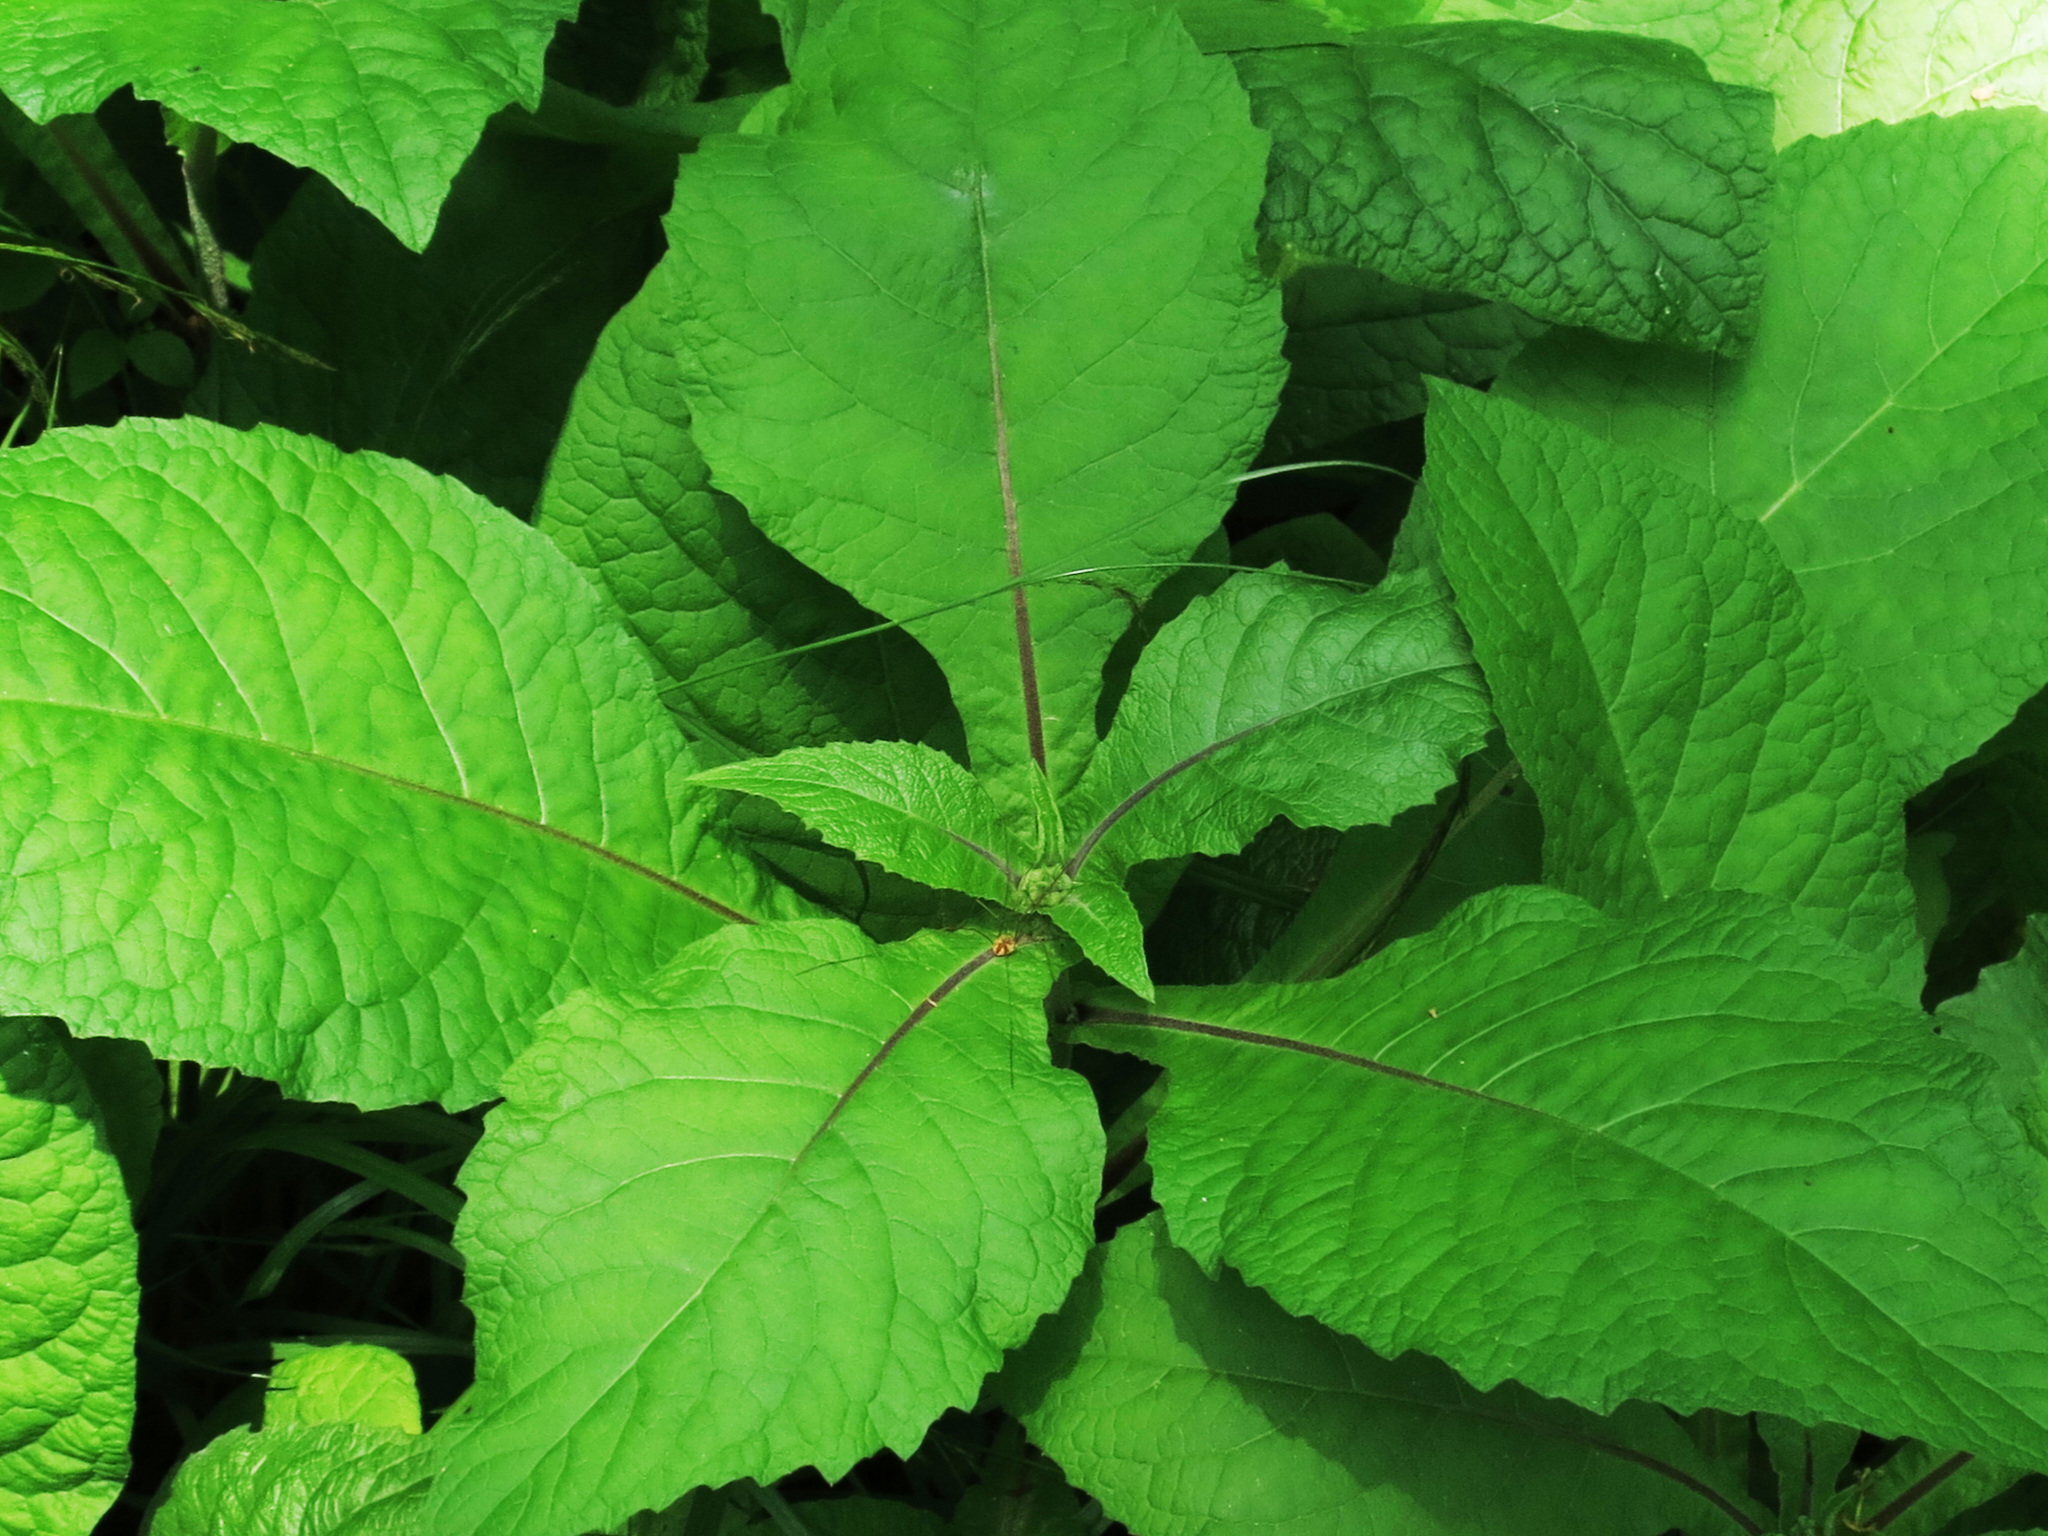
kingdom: Plantae
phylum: Tracheophyta
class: Magnoliopsida
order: Asterales
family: Asteraceae
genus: Carpesium
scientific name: Carpesium macrocephalum
